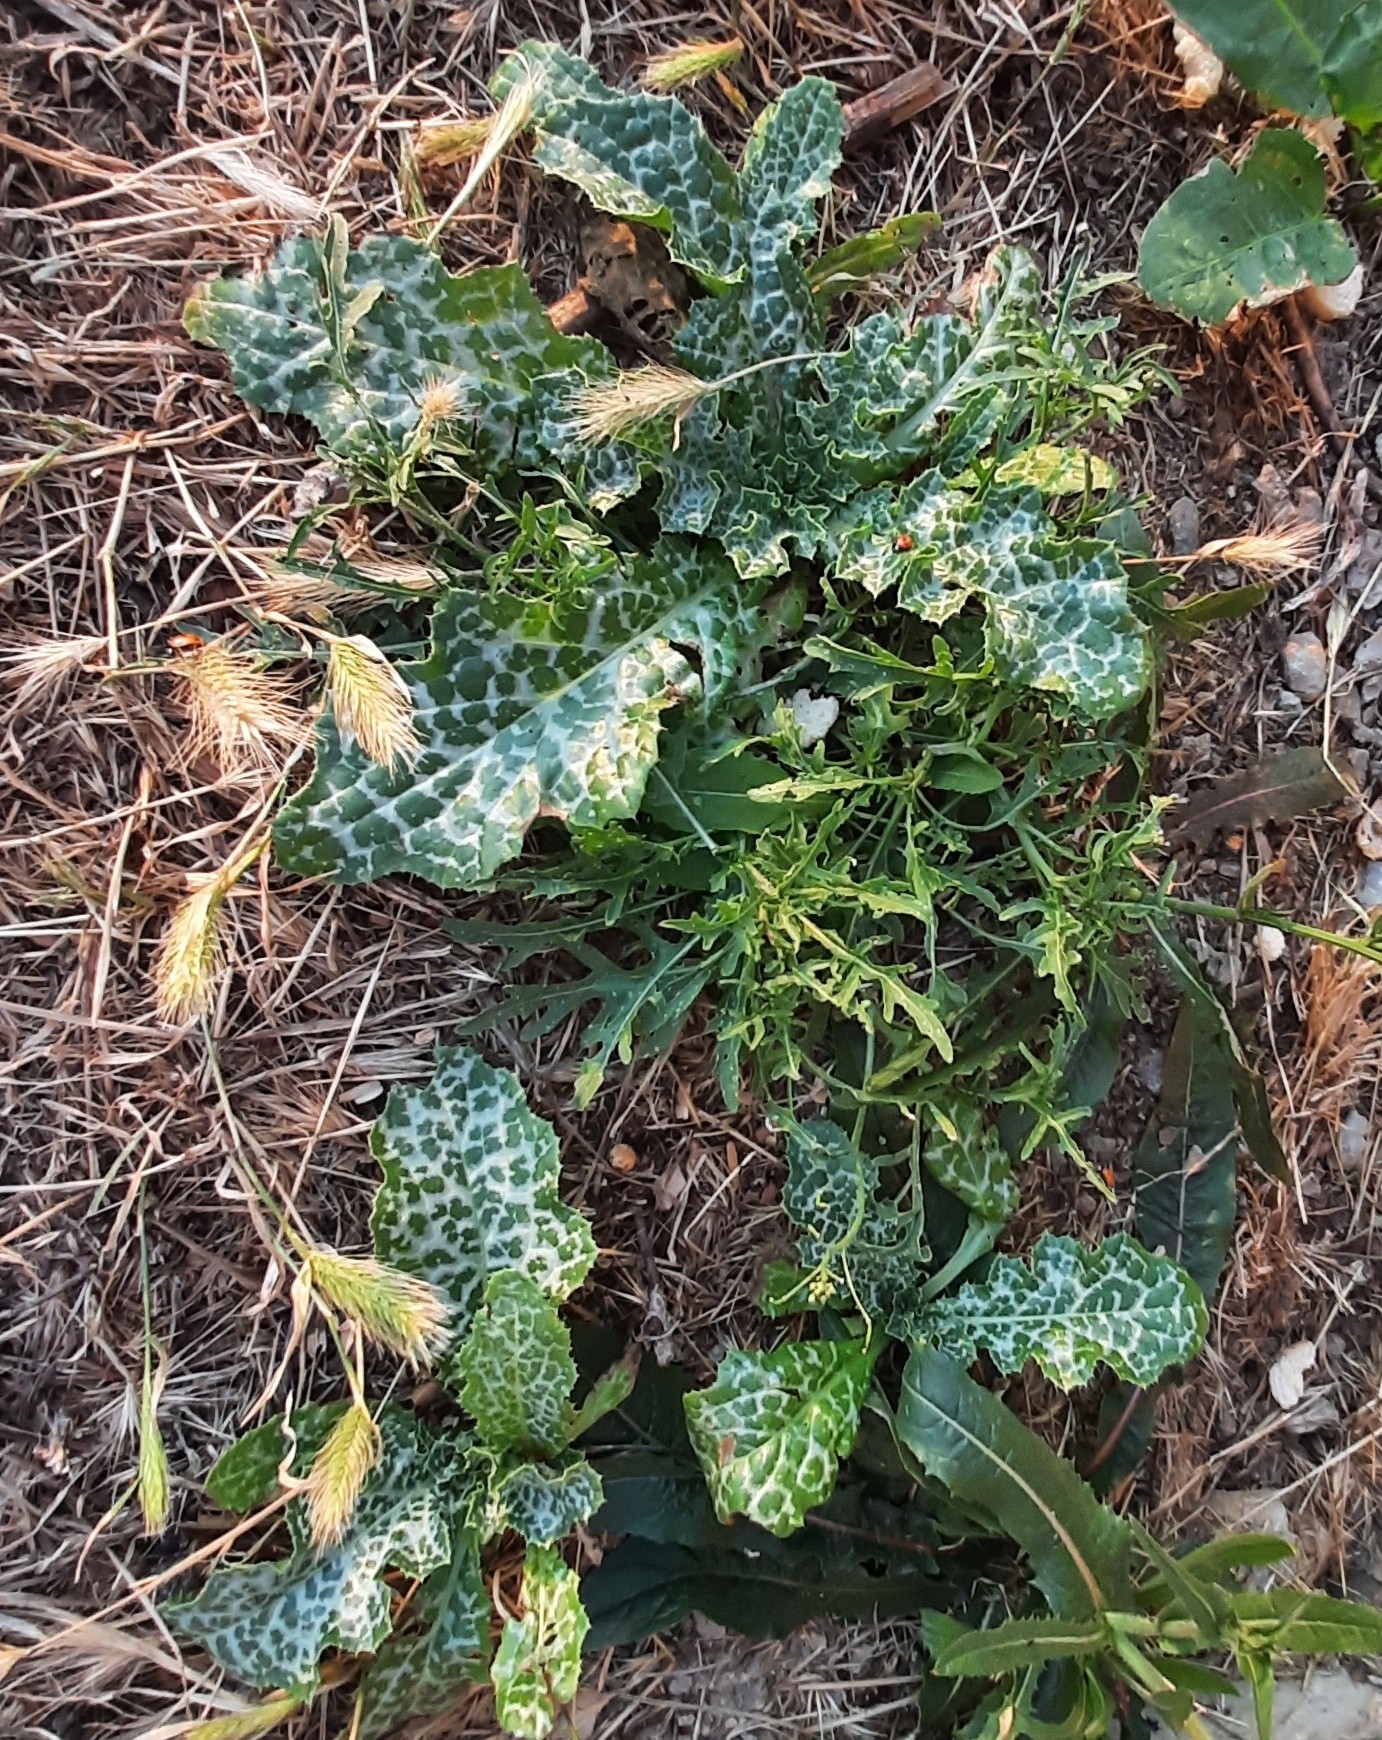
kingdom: Plantae
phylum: Tracheophyta
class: Magnoliopsida
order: Asterales
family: Asteraceae
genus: Silybum
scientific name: Silybum marianum
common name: Milk thistle
